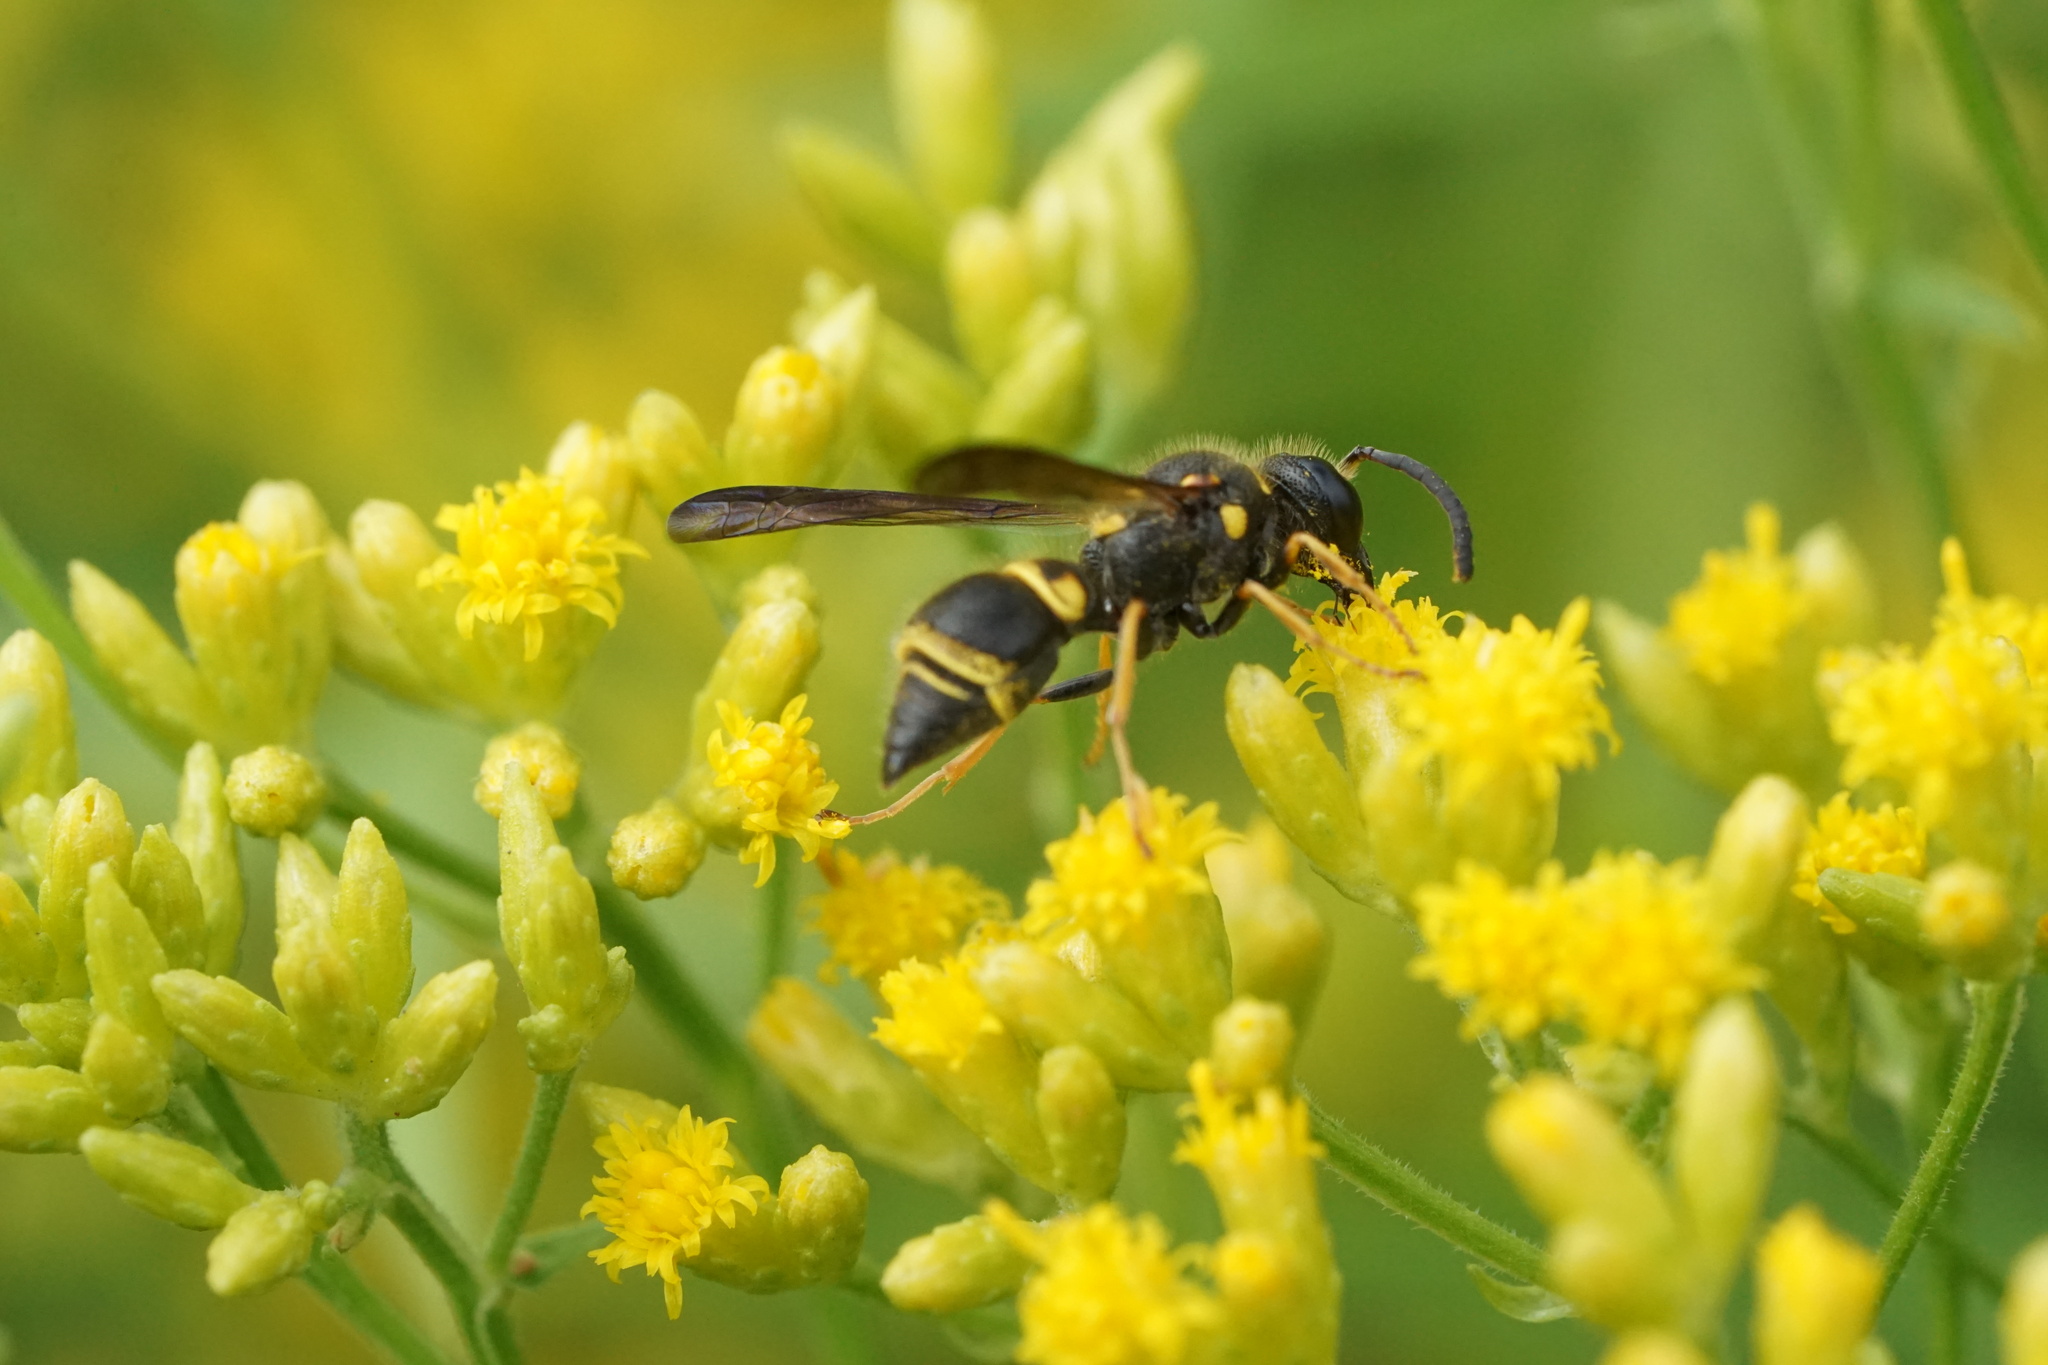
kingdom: Animalia
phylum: Arthropoda
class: Insecta
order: Hymenoptera
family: Vespidae
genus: Ancistrocerus
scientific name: Ancistrocerus campestris
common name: Smiling mason wasp
